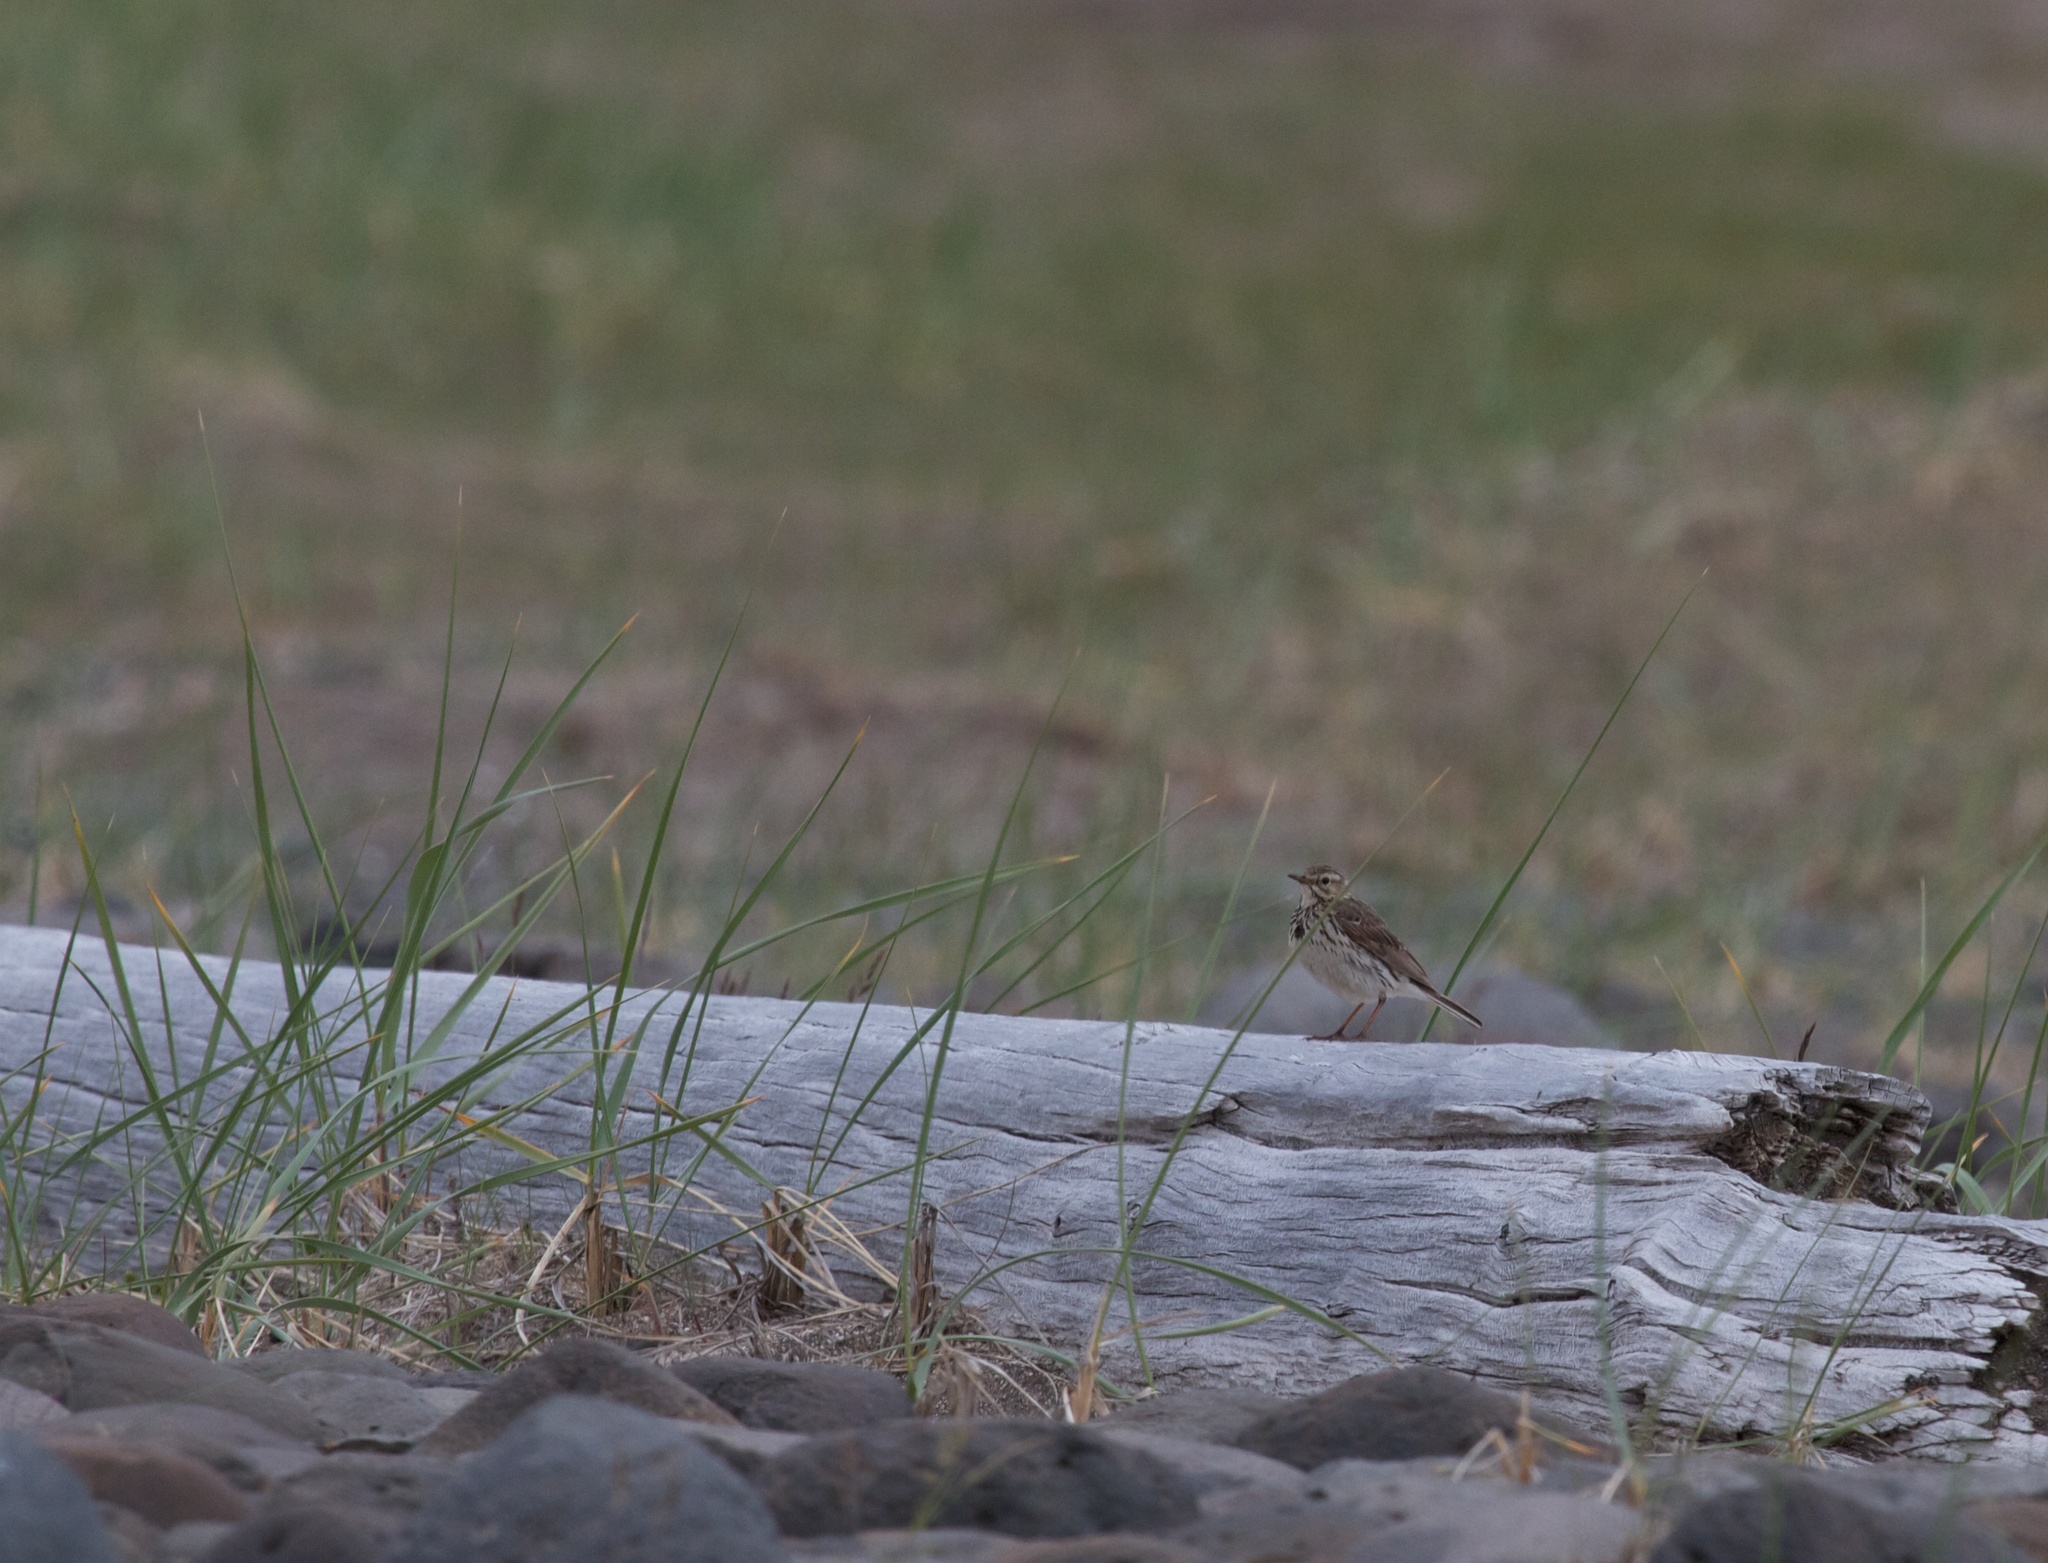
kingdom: Animalia
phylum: Chordata
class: Aves
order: Passeriformes
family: Motacillidae
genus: Anthus
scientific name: Anthus pratensis
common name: Meadow pipit
